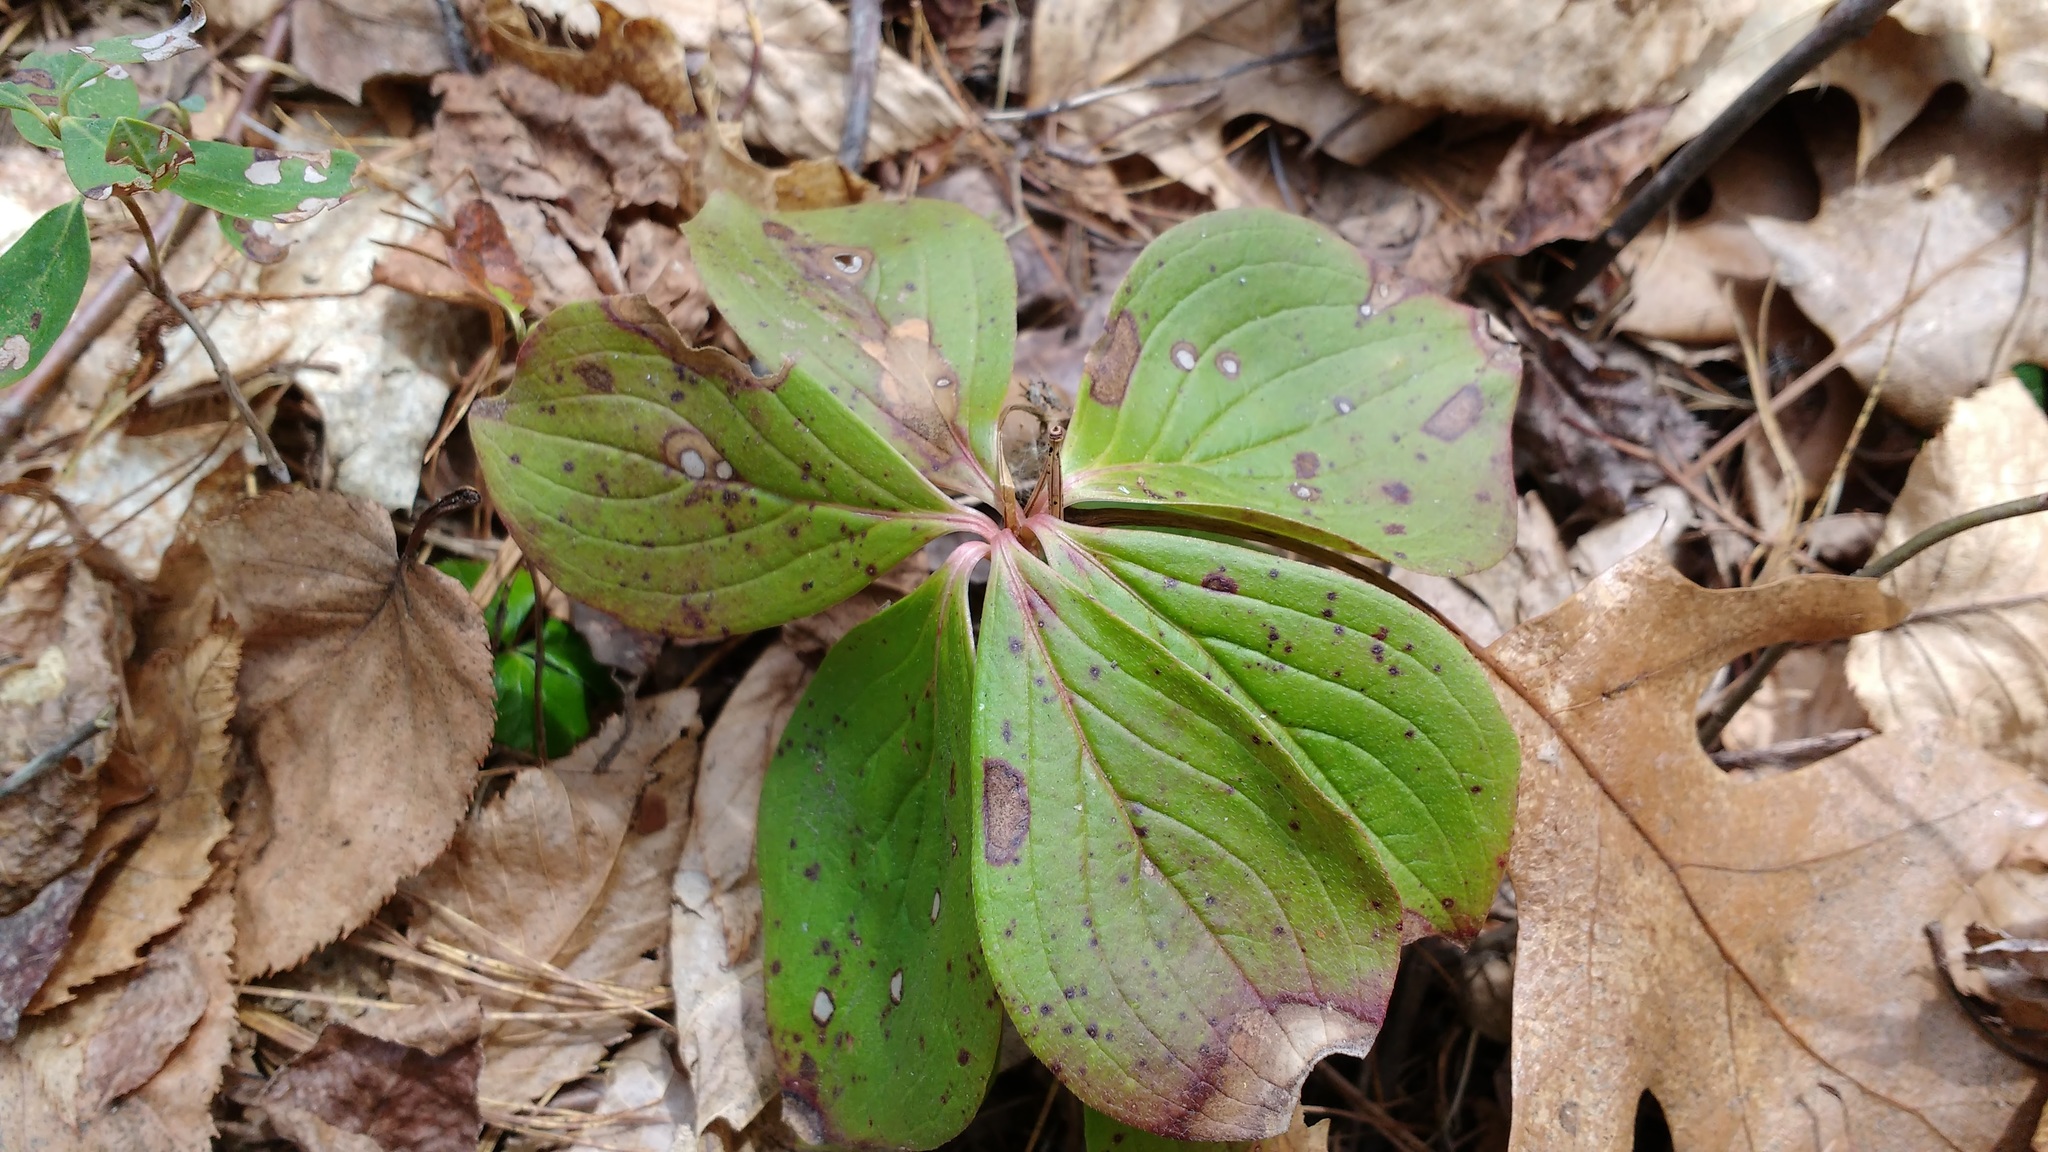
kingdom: Plantae
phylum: Tracheophyta
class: Magnoliopsida
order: Cornales
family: Cornaceae
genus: Cornus
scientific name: Cornus canadensis
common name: Creeping dogwood
